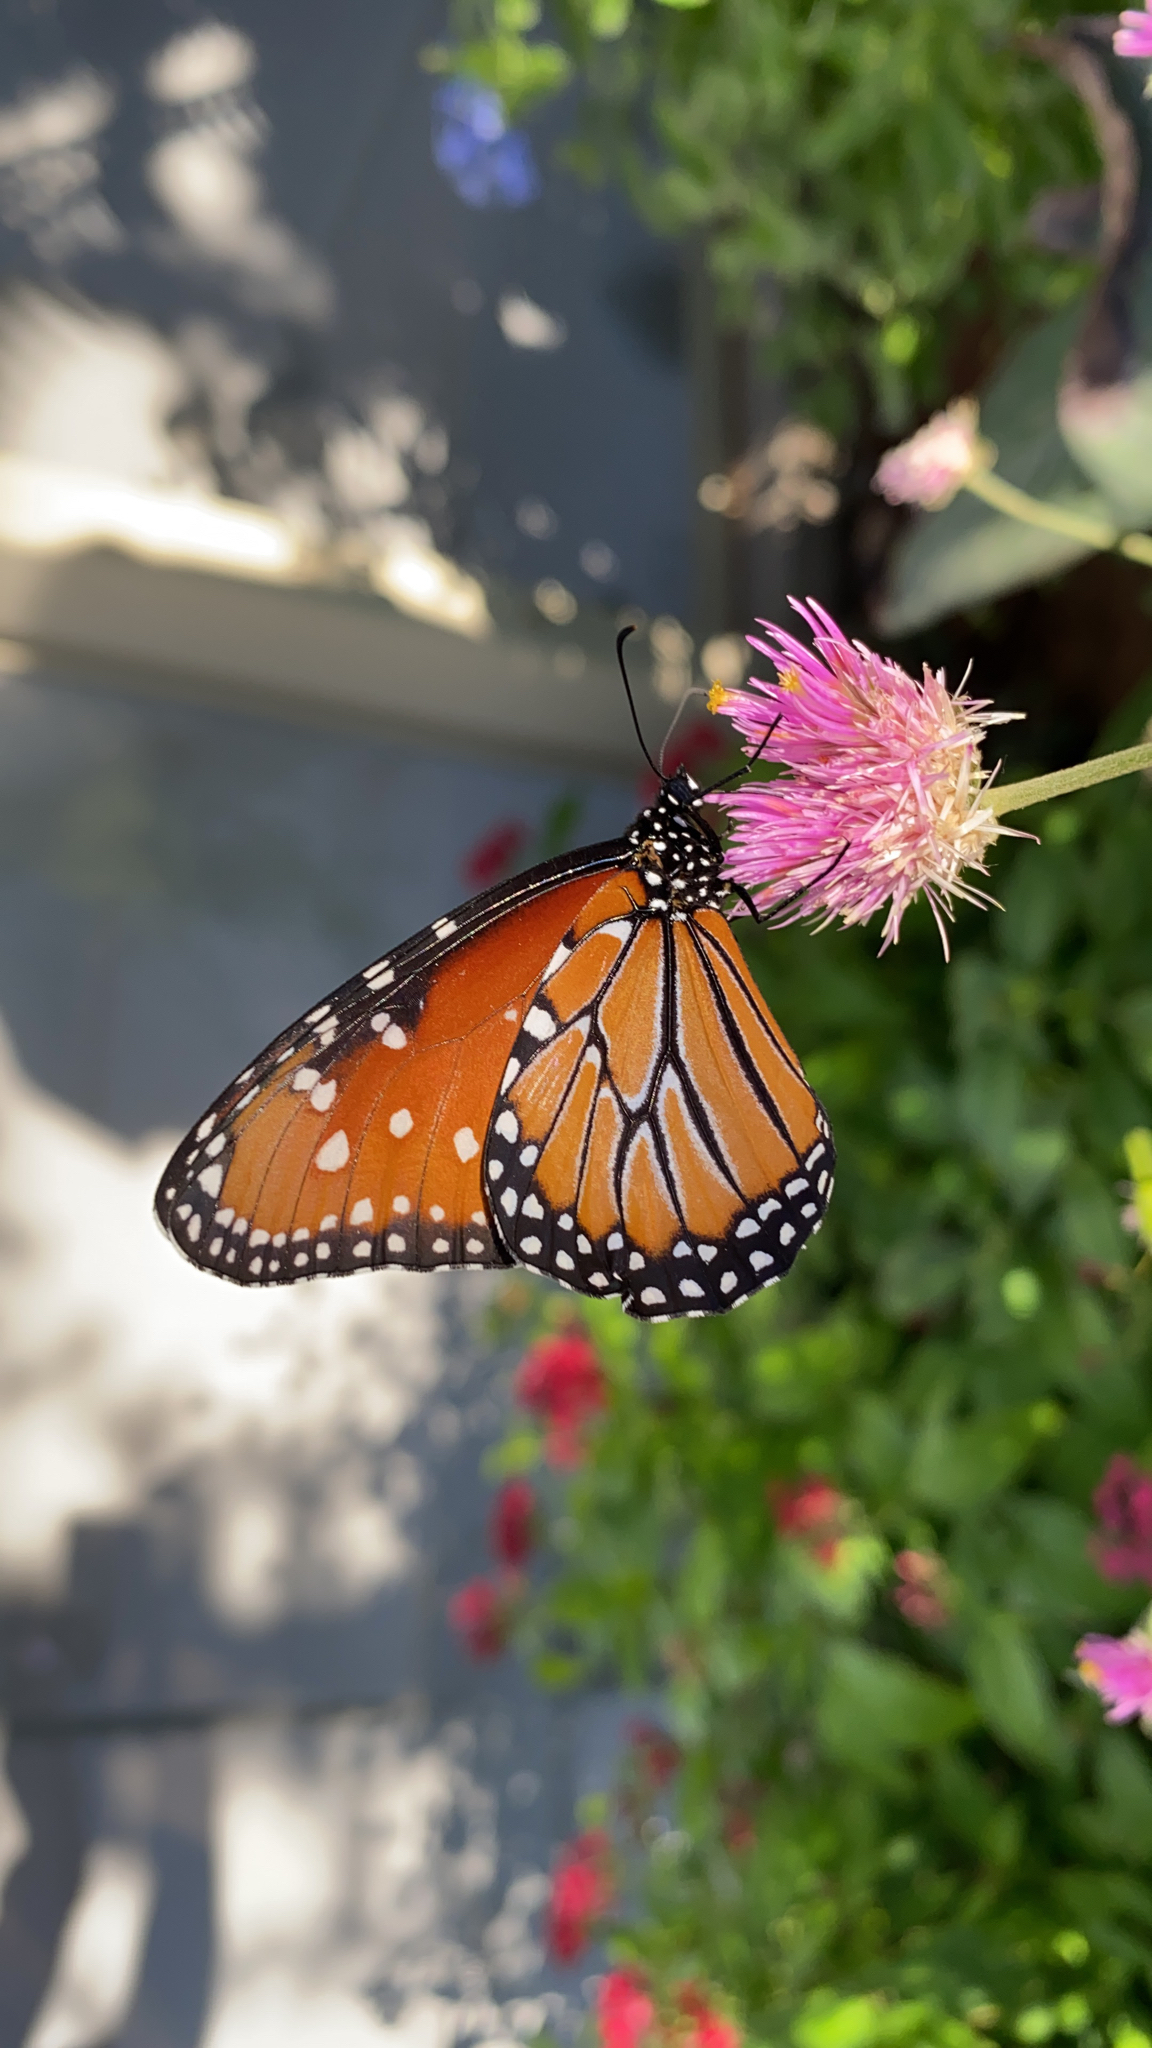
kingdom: Animalia
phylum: Arthropoda
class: Insecta
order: Lepidoptera
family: Nymphalidae
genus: Danaus
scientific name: Danaus gilippus
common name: Queen
